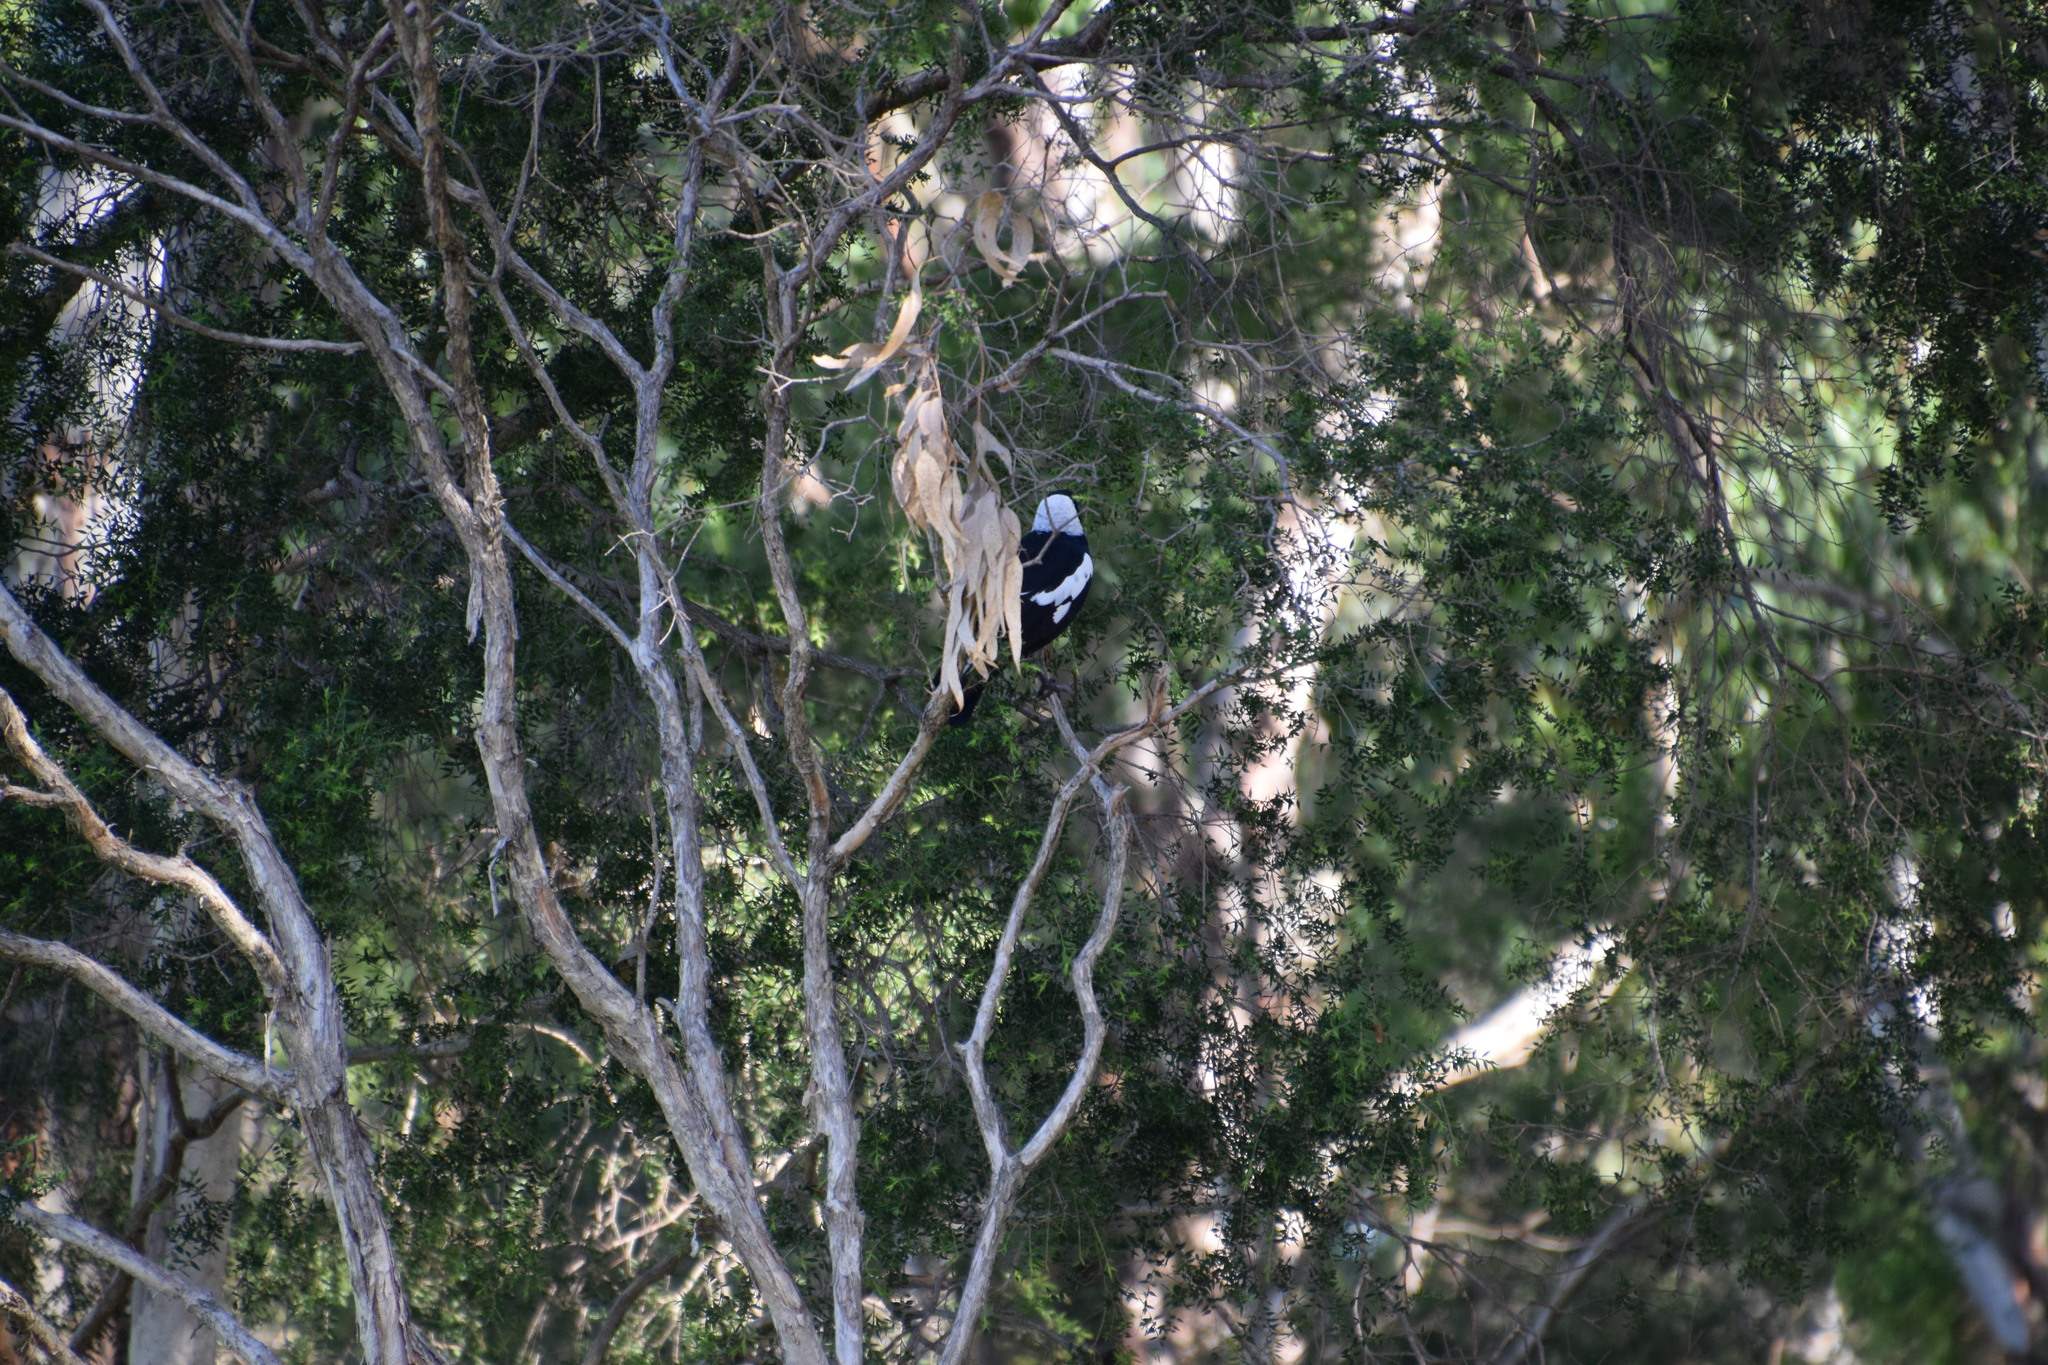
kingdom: Animalia
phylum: Chordata
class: Aves
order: Passeriformes
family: Cracticidae
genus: Gymnorhina
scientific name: Gymnorhina tibicen
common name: Australian magpie
